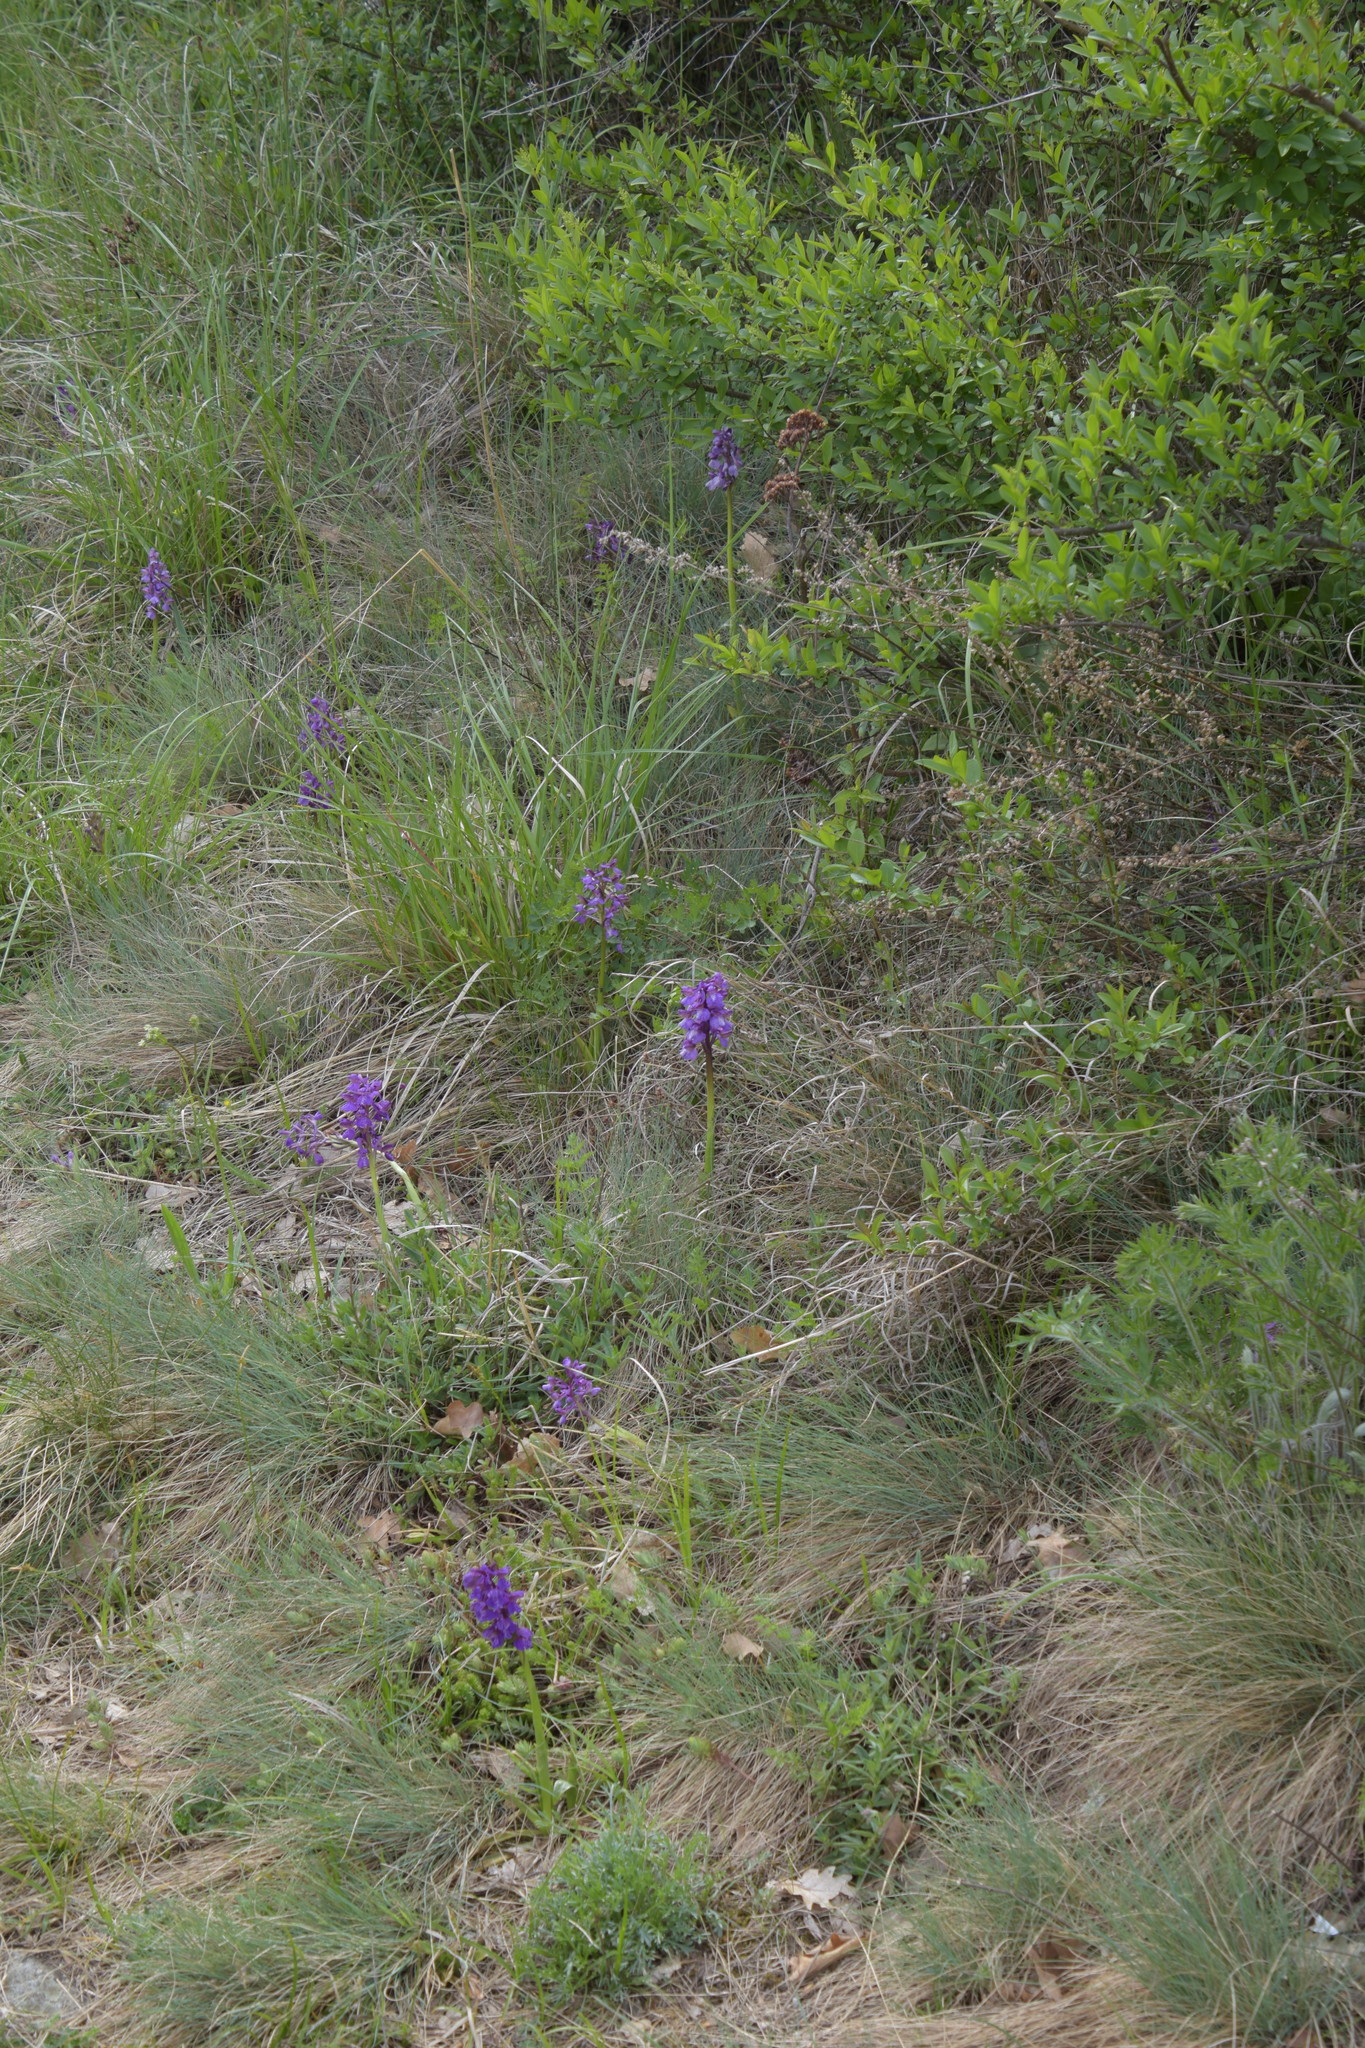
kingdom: Plantae
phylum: Tracheophyta
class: Liliopsida
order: Asparagales
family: Orchidaceae
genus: Anacamptis
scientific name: Anacamptis morio
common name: Green-winged orchid
